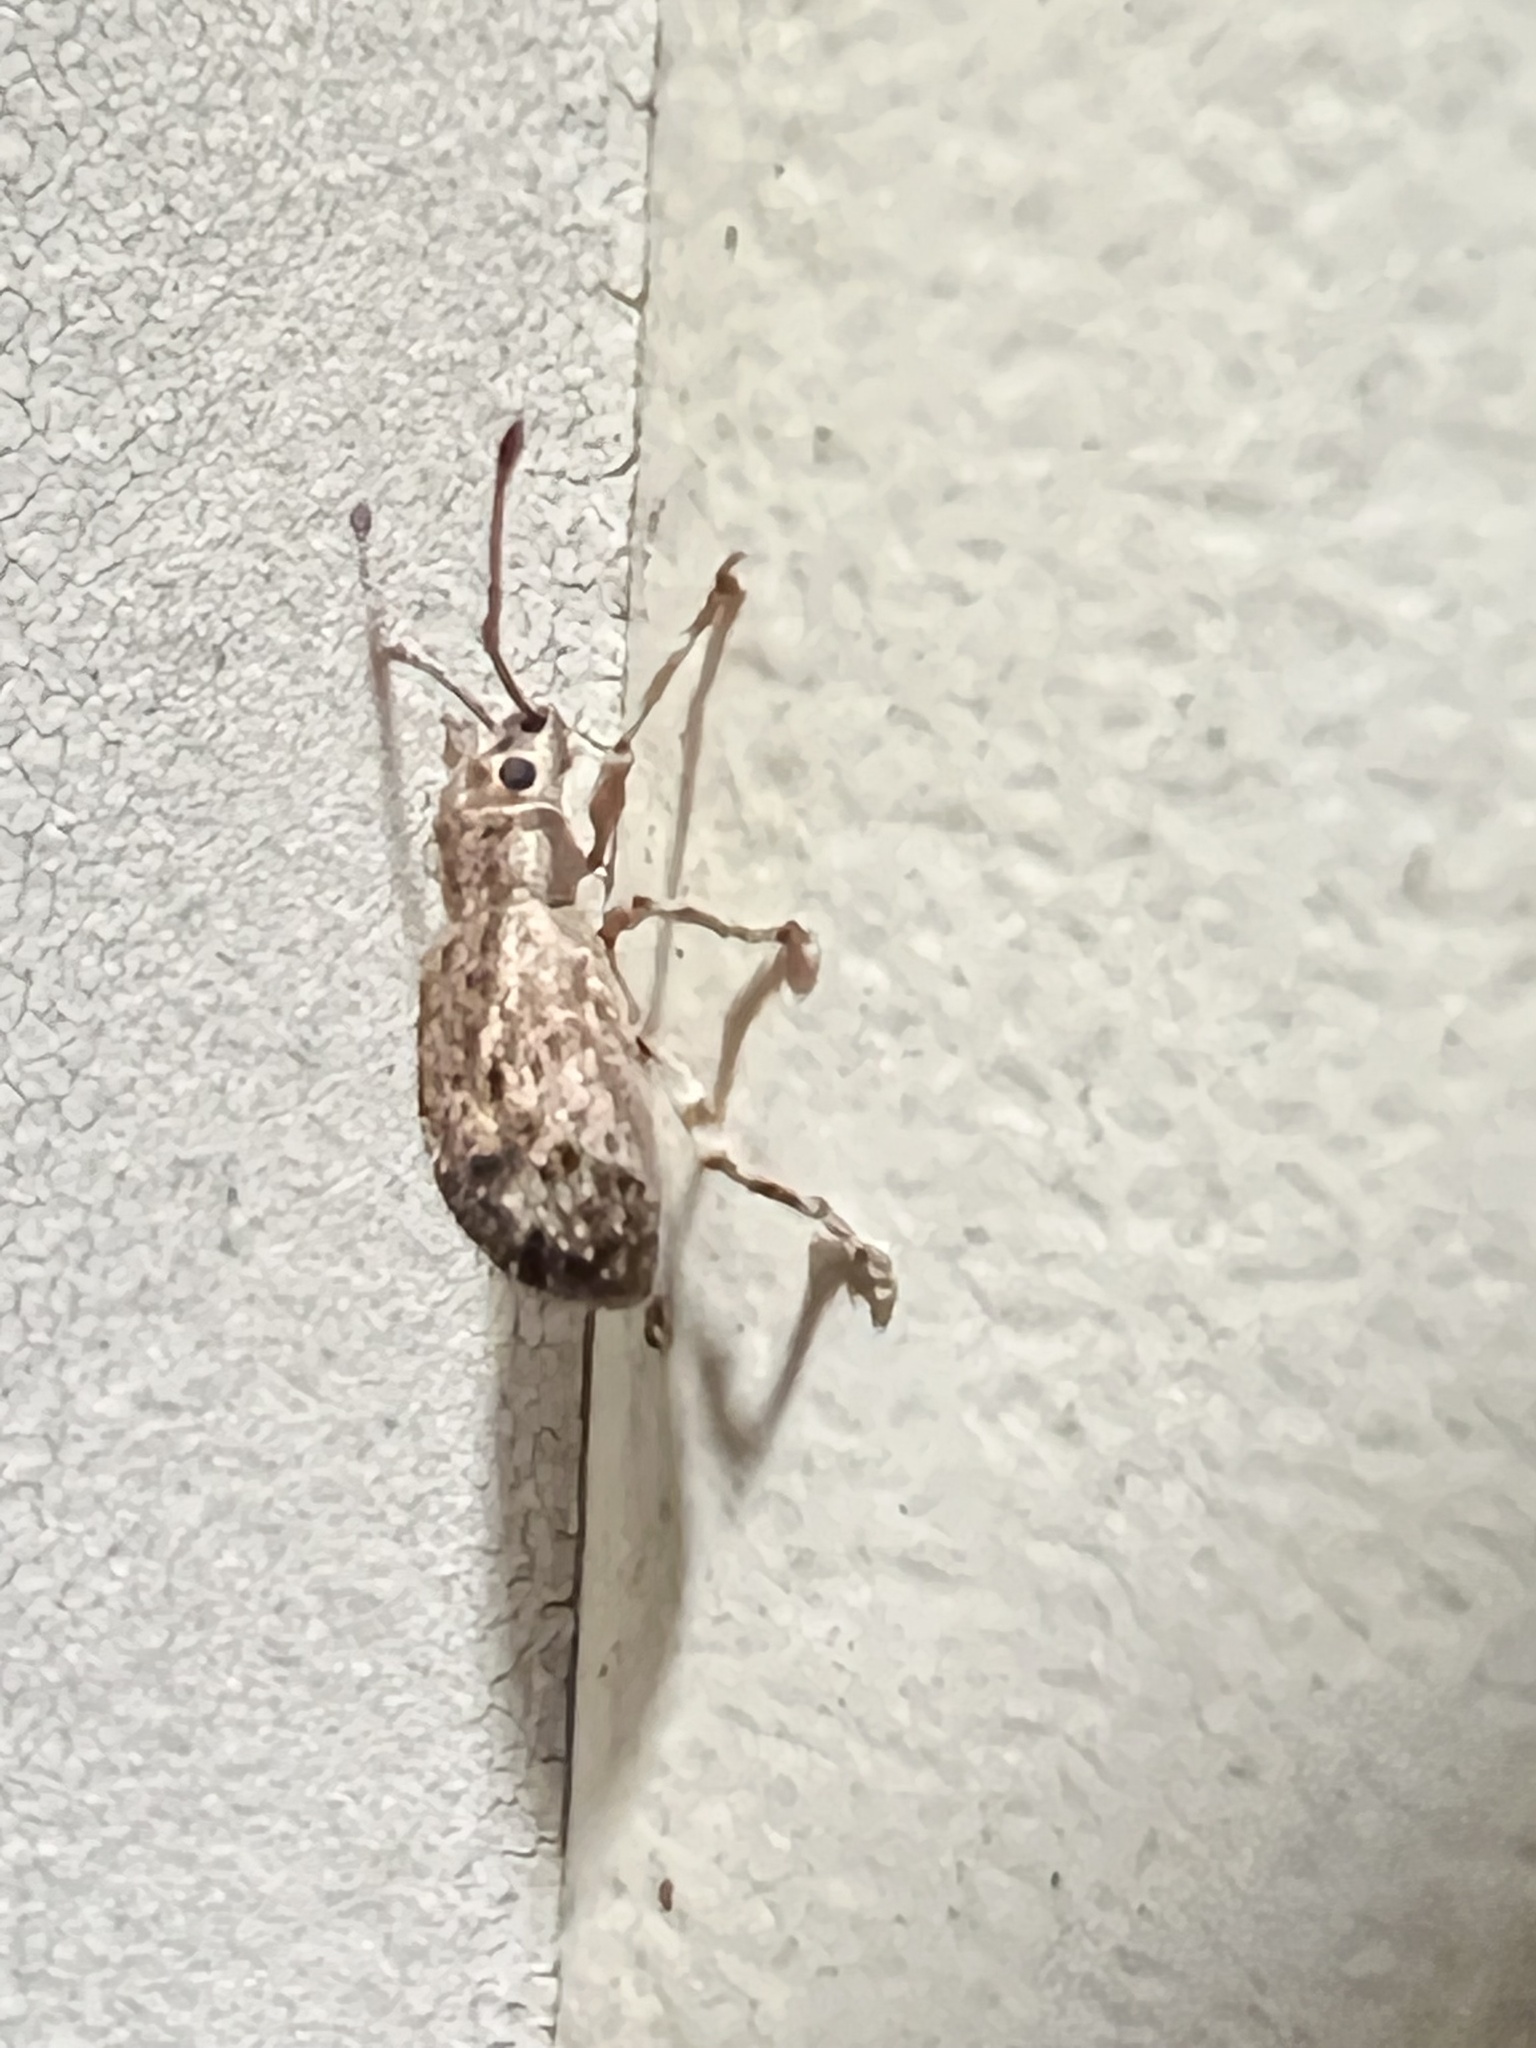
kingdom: Animalia
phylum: Arthropoda
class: Insecta
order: Coleoptera
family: Curculionidae
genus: Pseudoedophrys
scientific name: Pseudoedophrys hilleri
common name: Weevil
